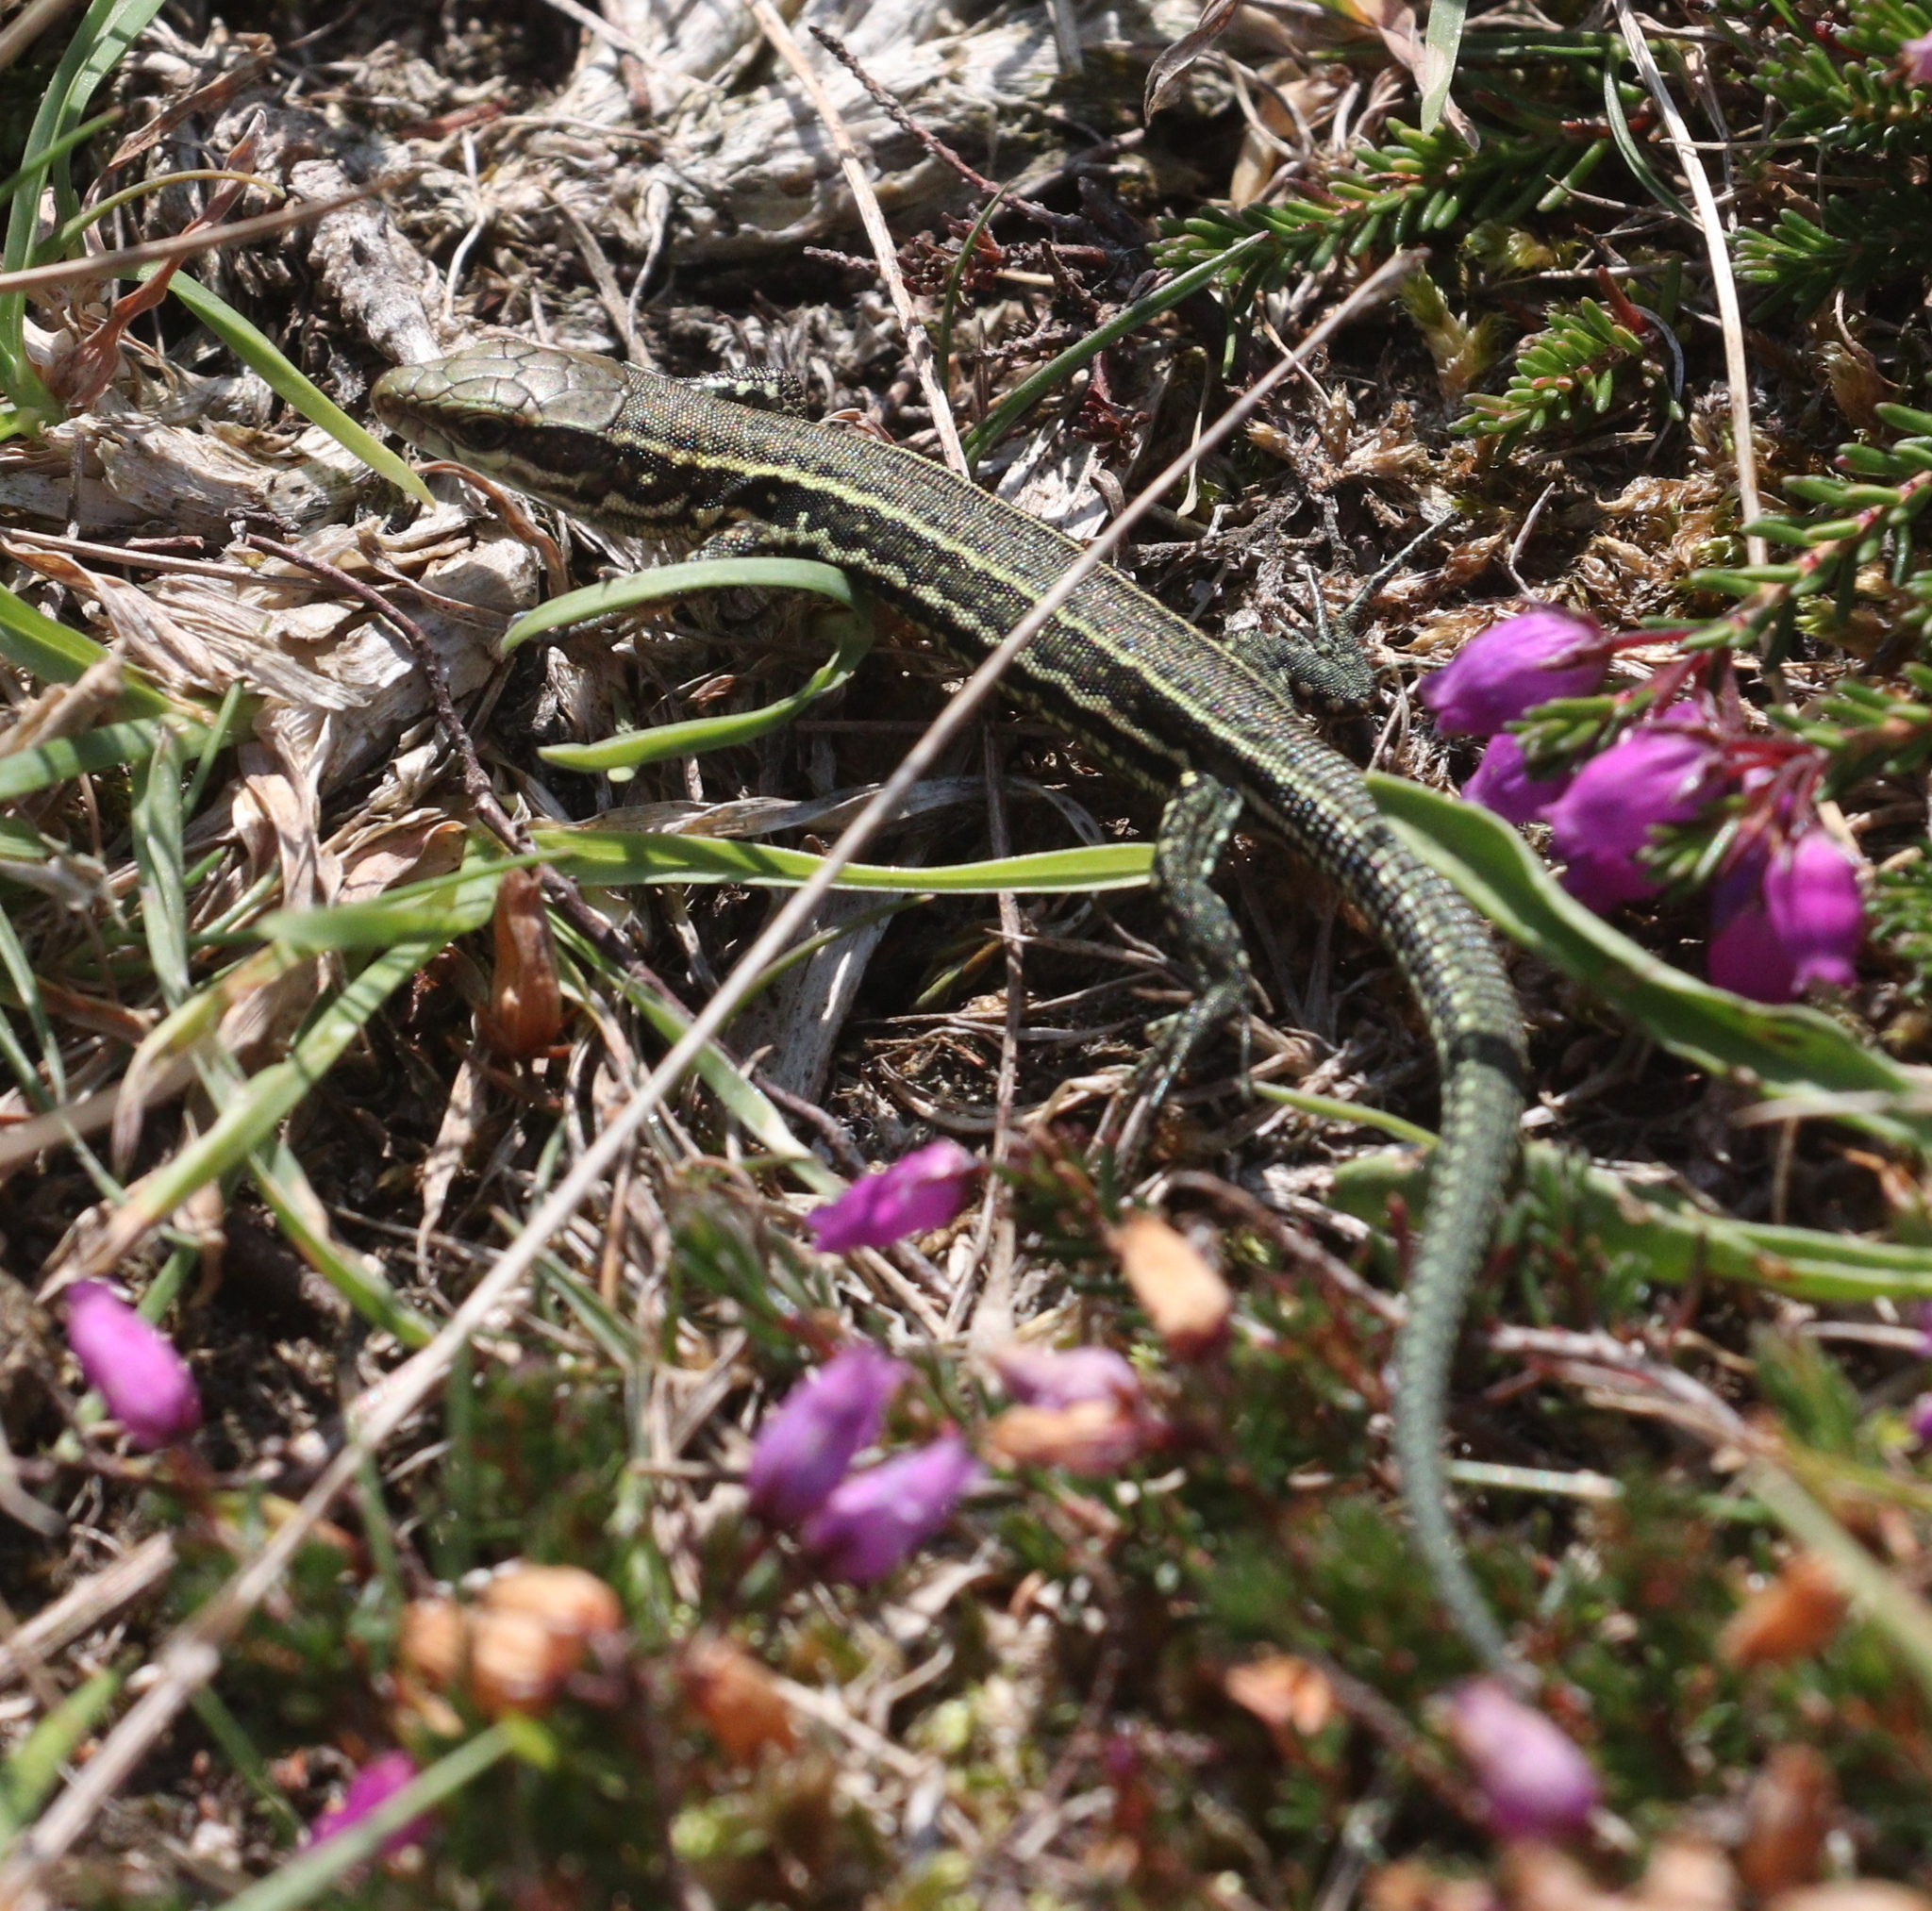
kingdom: Animalia
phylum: Chordata
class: Squamata
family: Lacertidae
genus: Podarcis
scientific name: Podarcis muralis
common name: Common wall lizard
